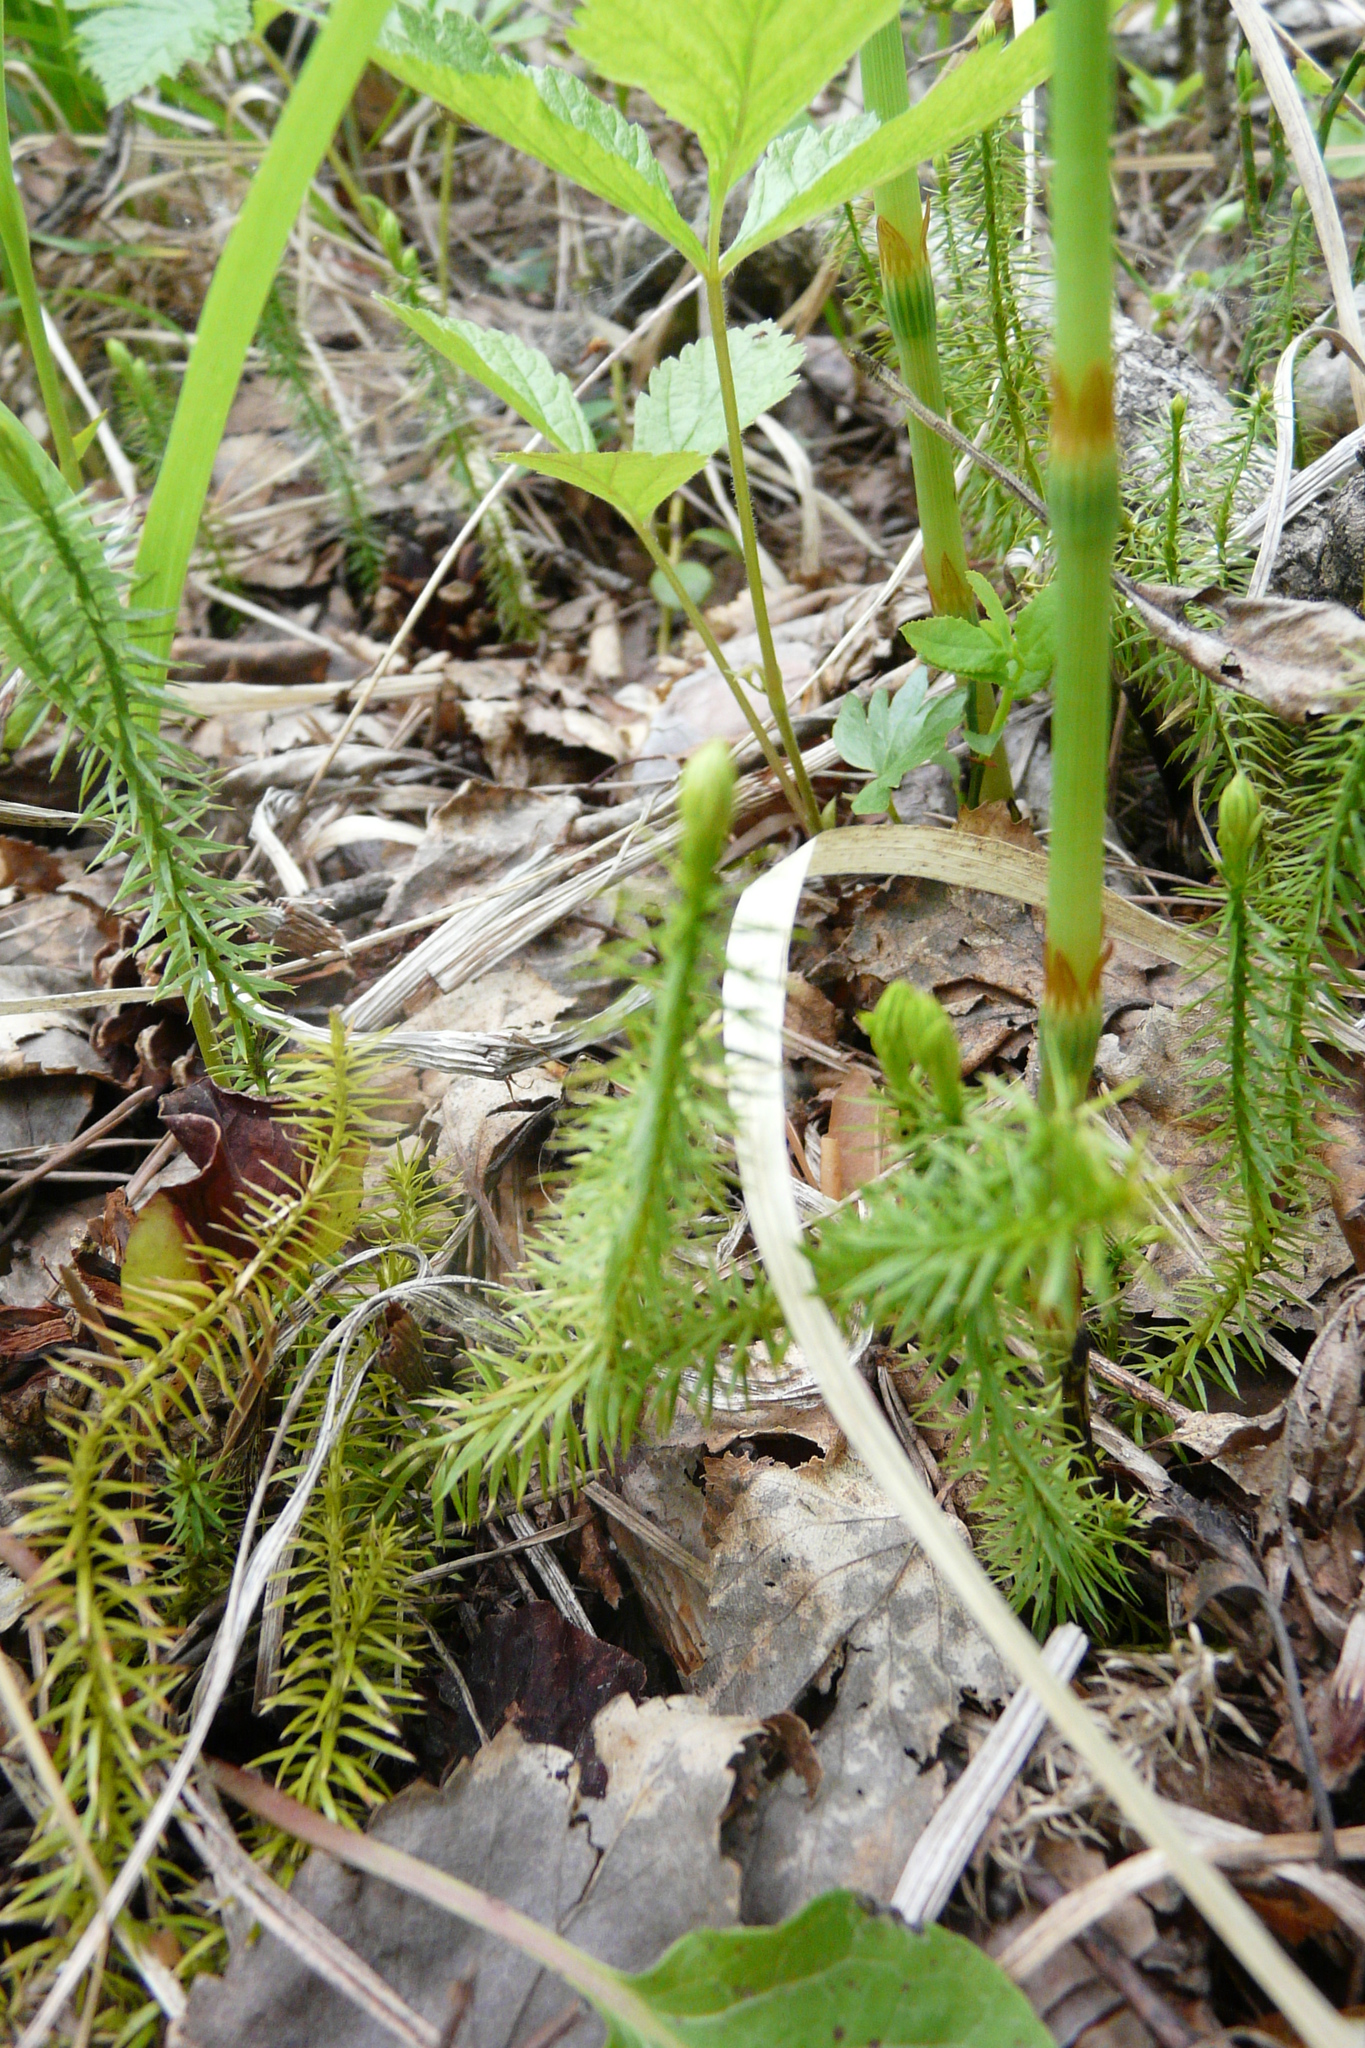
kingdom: Plantae
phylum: Tracheophyta
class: Lycopodiopsida
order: Lycopodiales
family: Lycopodiaceae
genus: Spinulum
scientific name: Spinulum annotinum
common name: Interrupted club-moss
